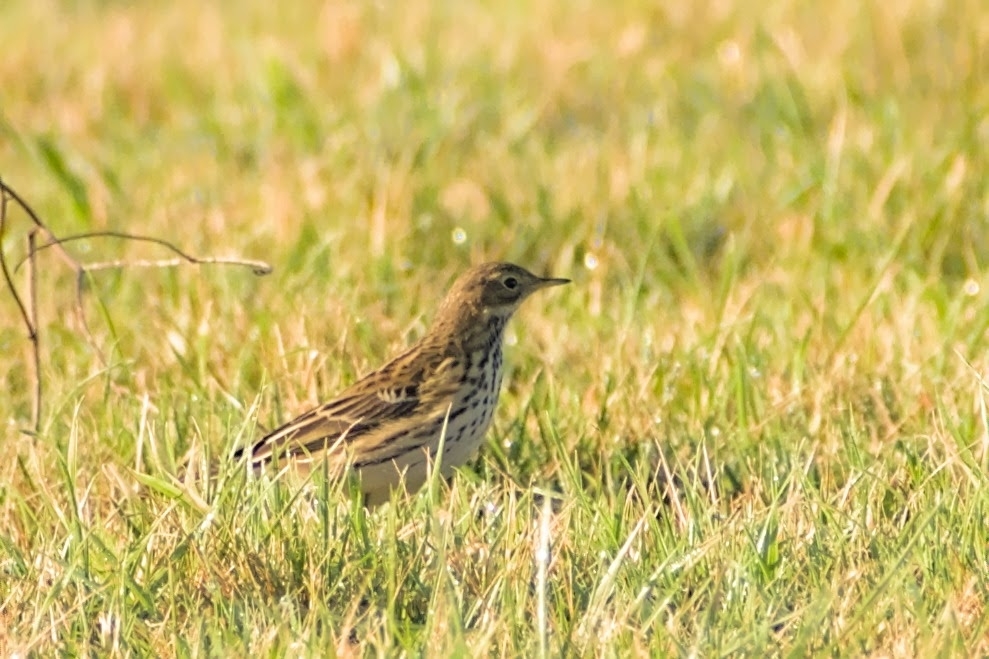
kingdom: Animalia
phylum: Chordata
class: Aves
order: Passeriformes
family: Motacillidae
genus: Anthus
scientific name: Anthus pratensis
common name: Meadow pipit
